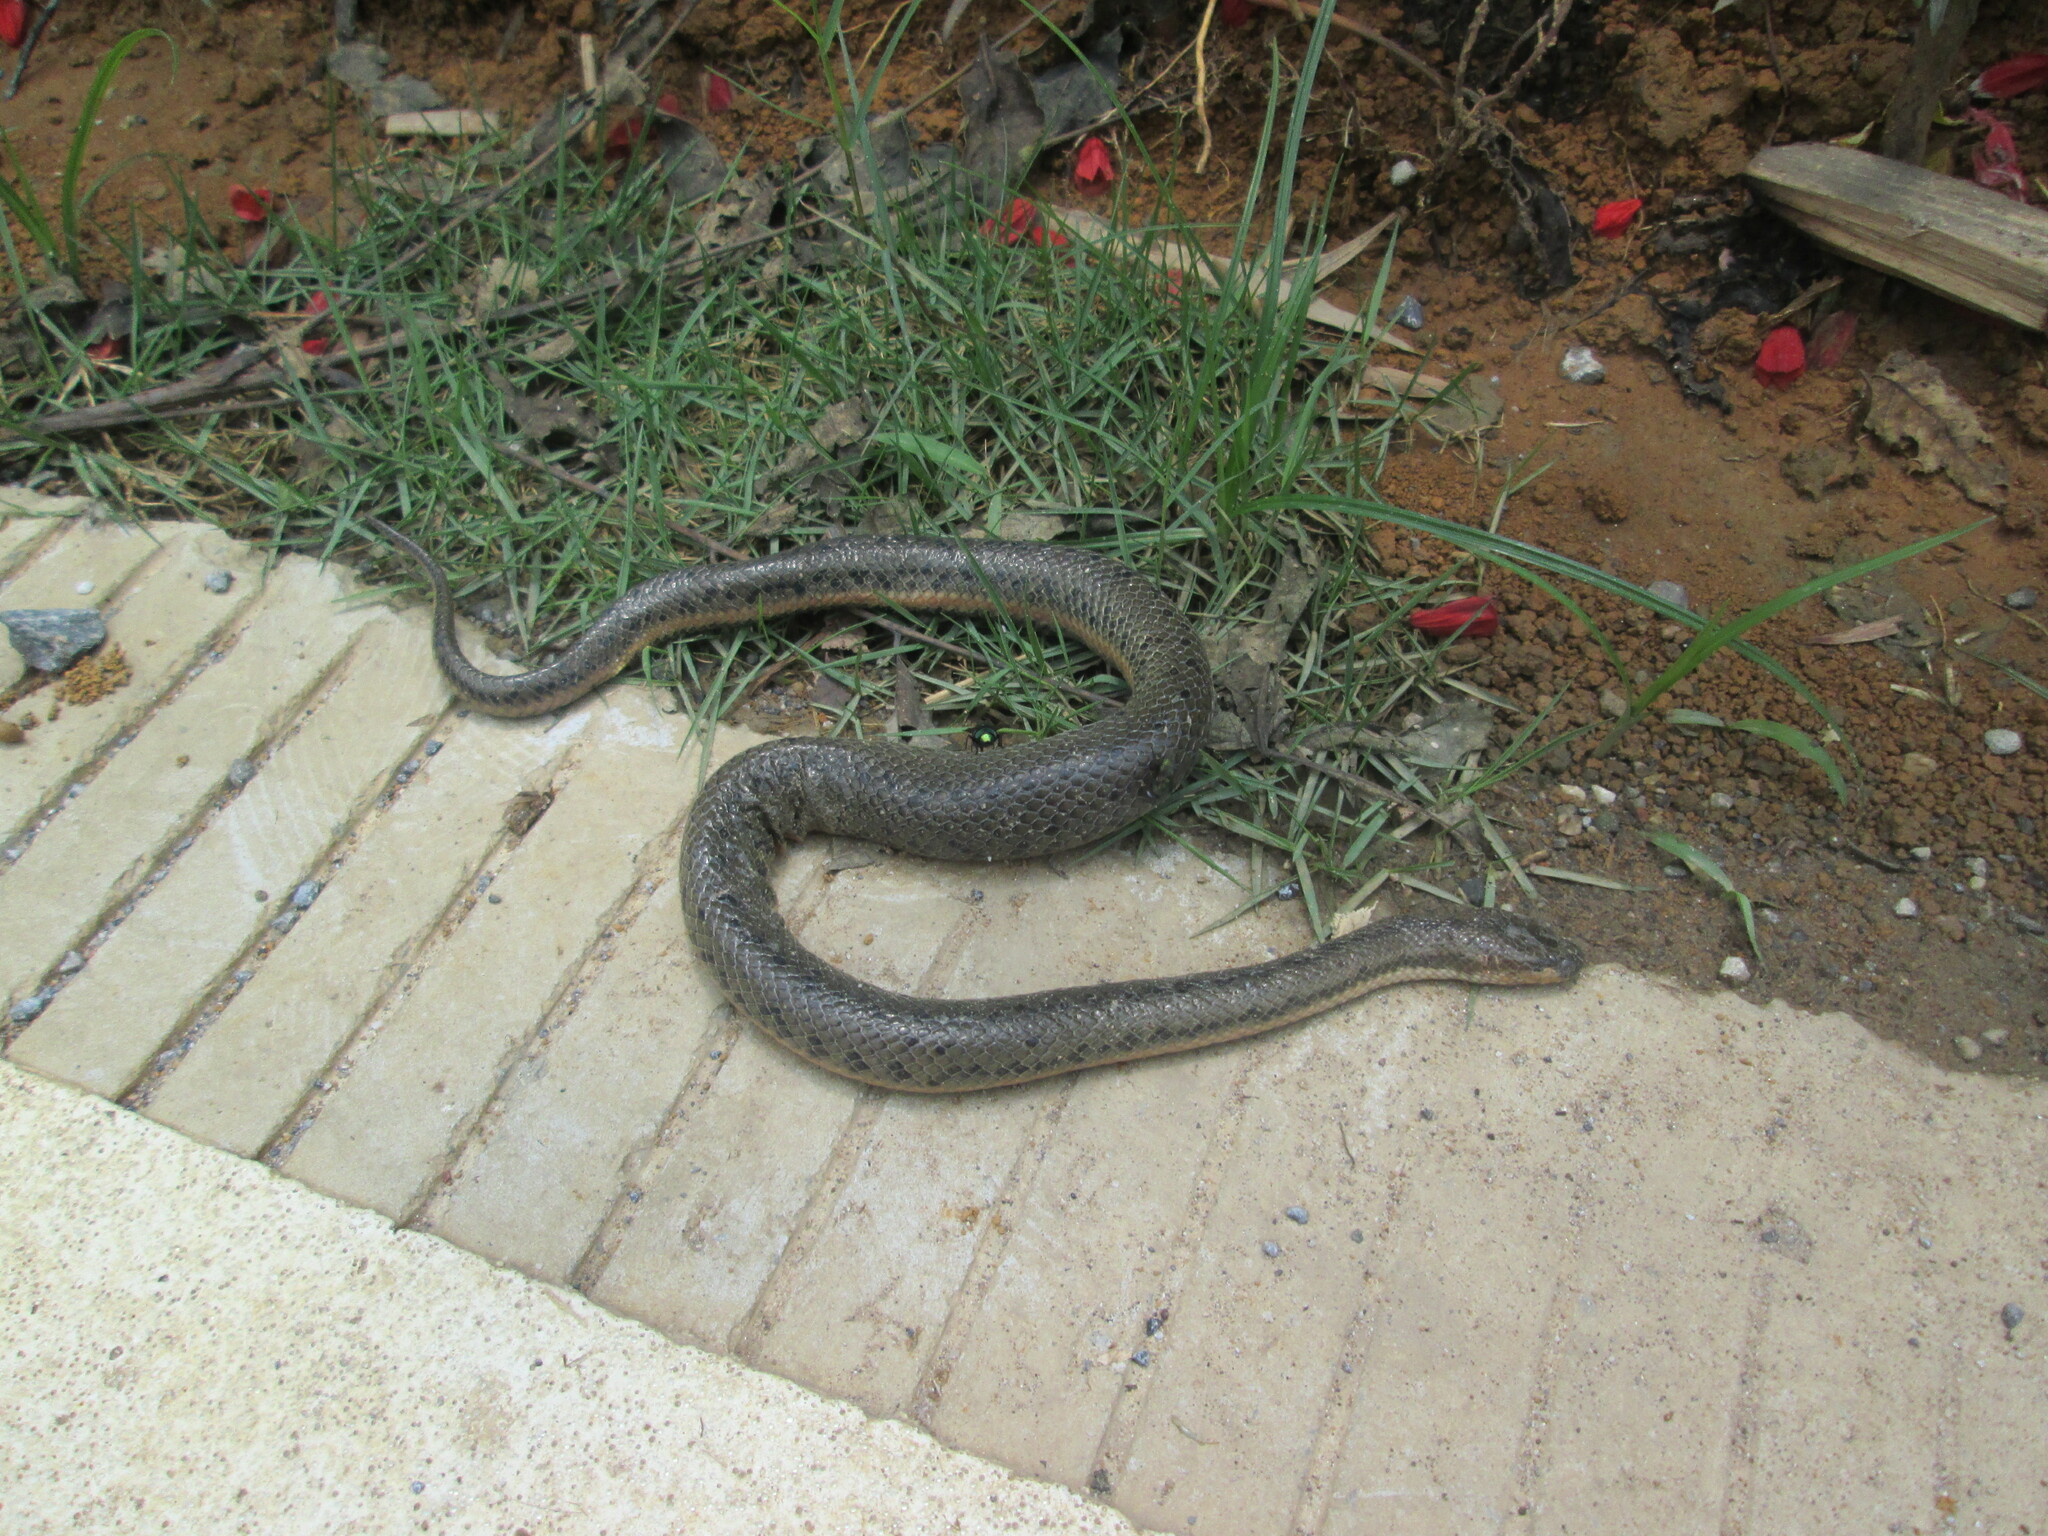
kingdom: Animalia
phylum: Chordata
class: Squamata
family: Homalopsidae
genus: Myrrophis
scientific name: Myrrophis chinensis
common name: Chinese mud snake
